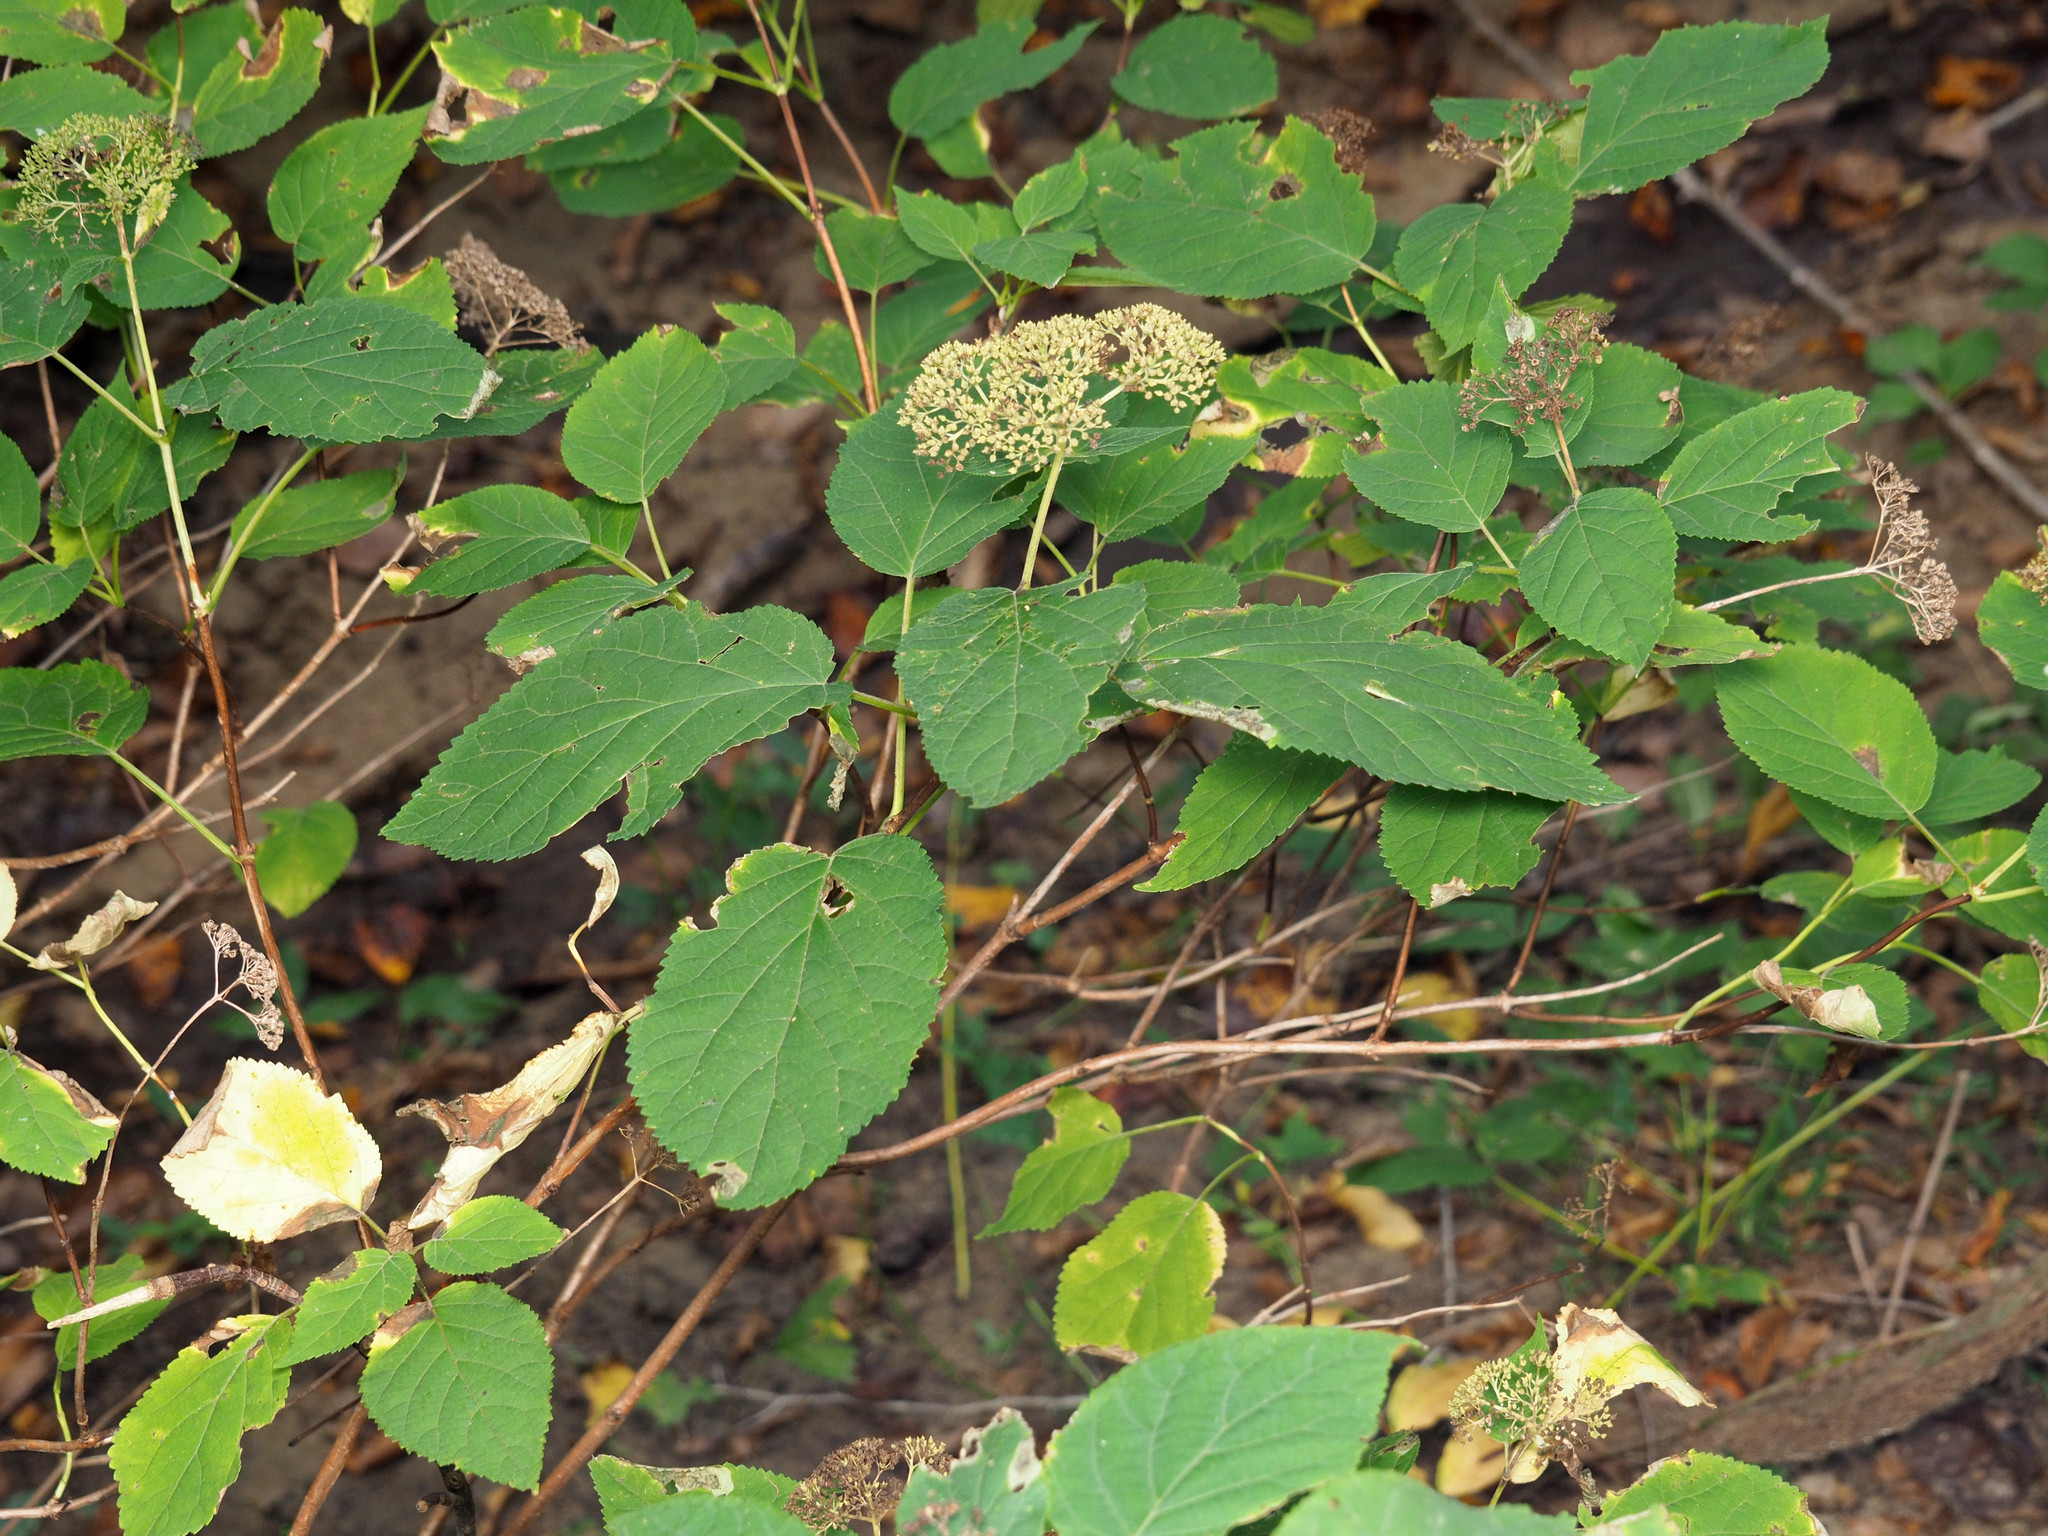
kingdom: Plantae
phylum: Tracheophyta
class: Magnoliopsida
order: Cornales
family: Hydrangeaceae
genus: Hydrangea
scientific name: Hydrangea arborescens
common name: Sevenbark
